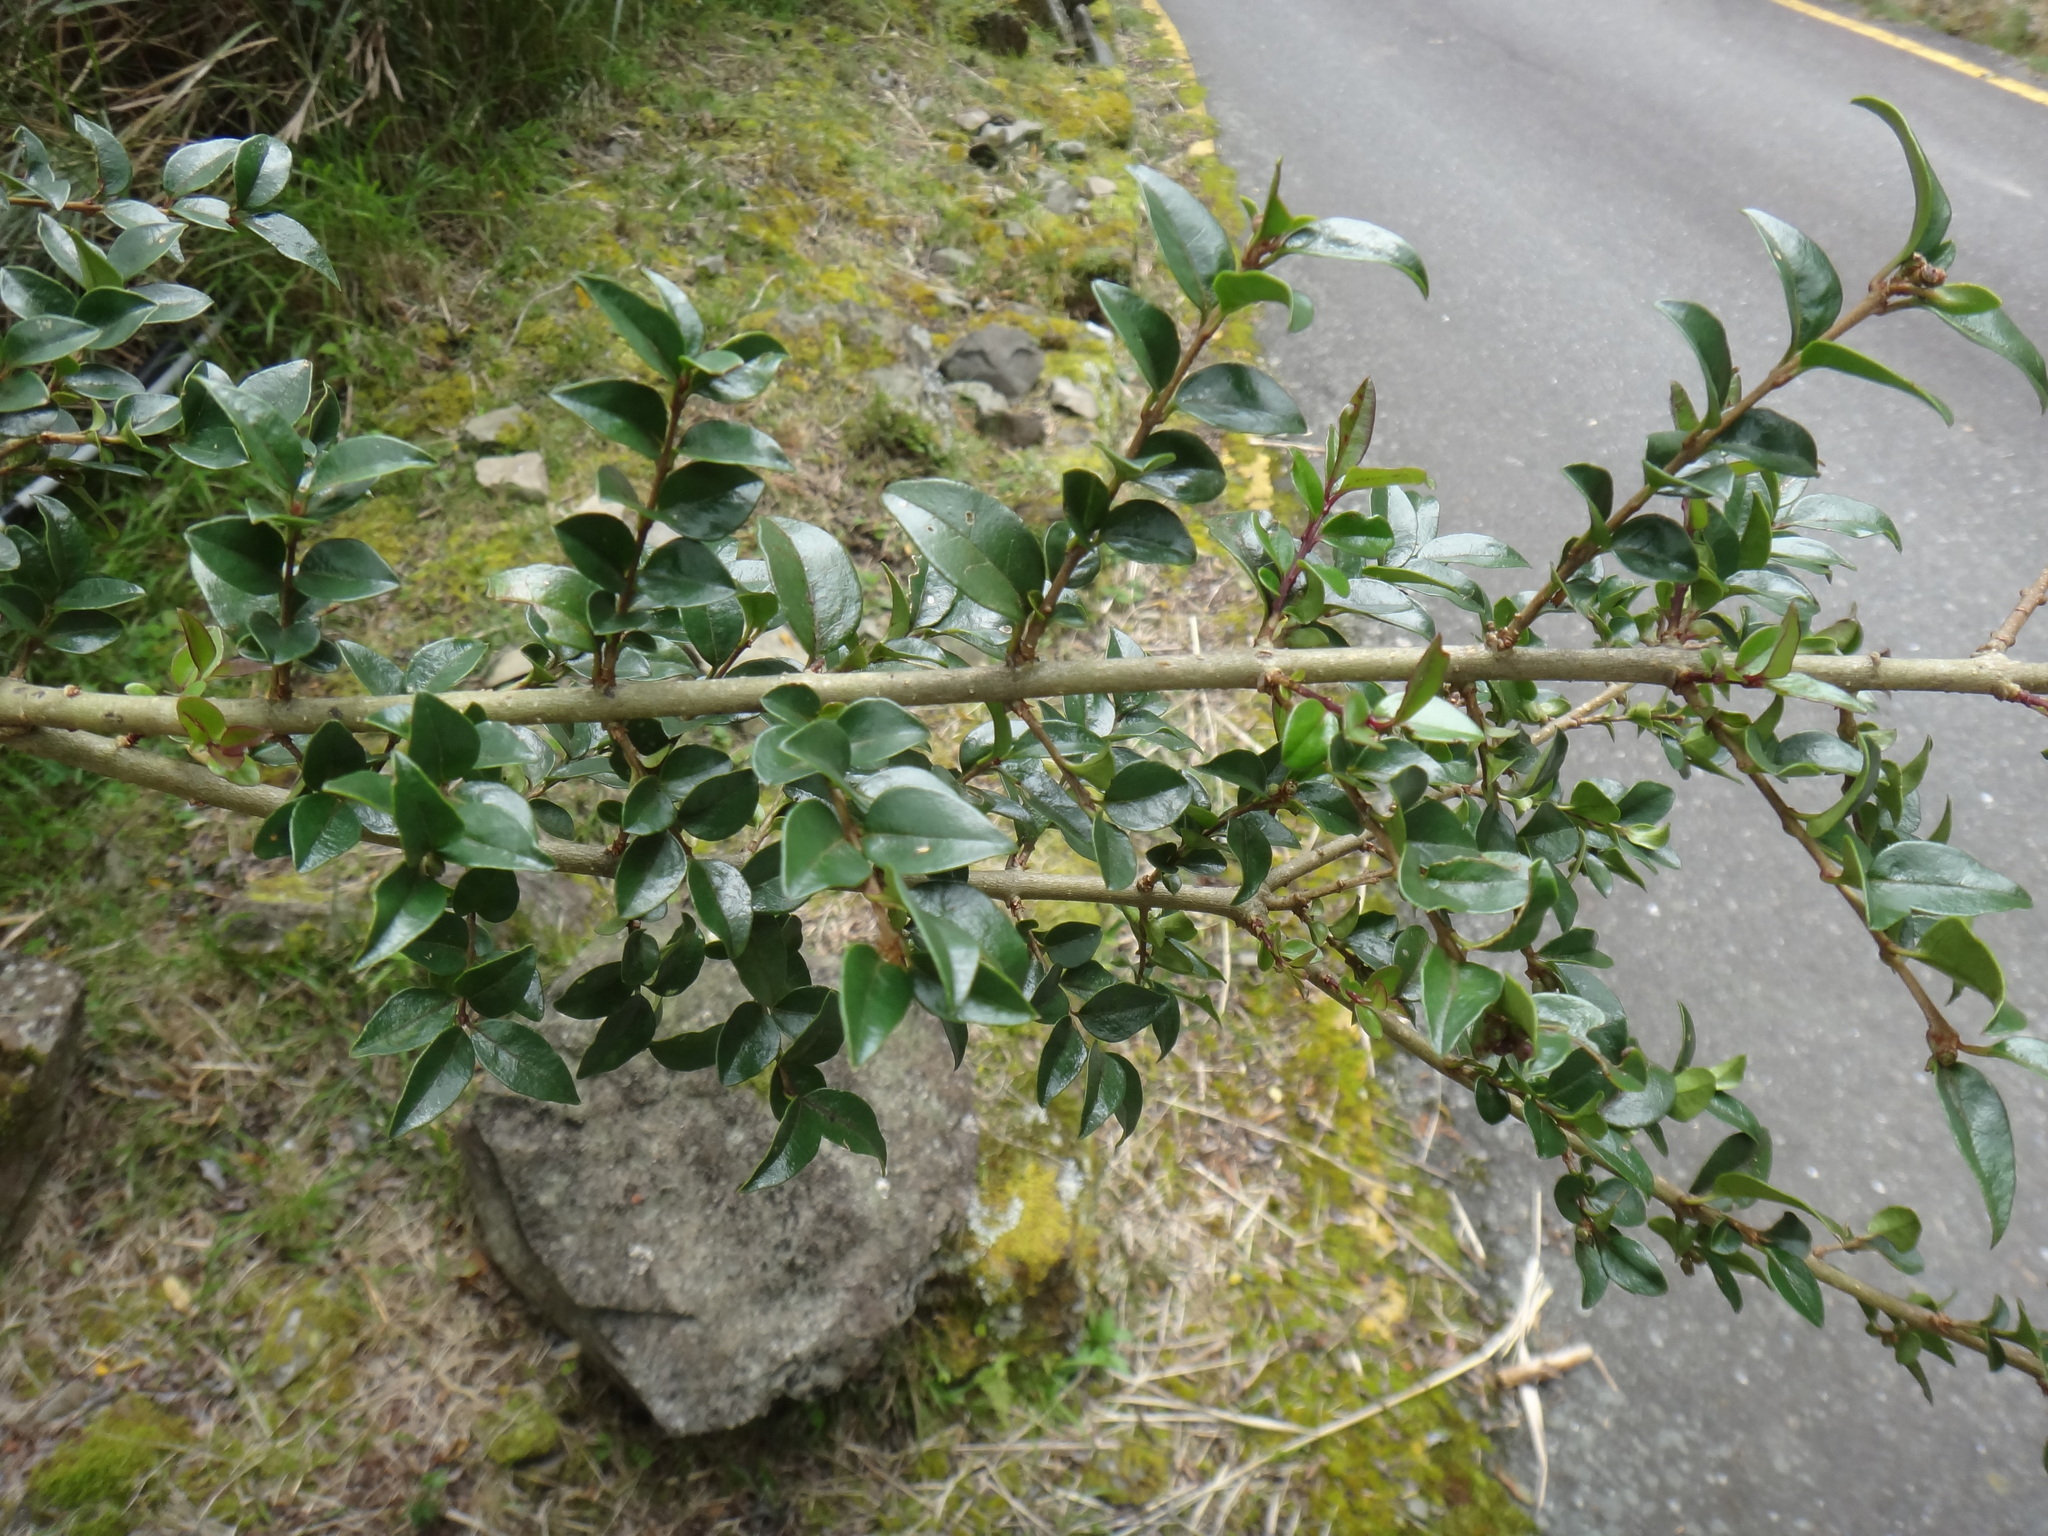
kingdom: Plantae
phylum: Tracheophyta
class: Magnoliopsida
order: Lamiales
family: Oleaceae
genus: Ligustrum
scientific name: Ligustrum sinense
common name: Chinese privet
